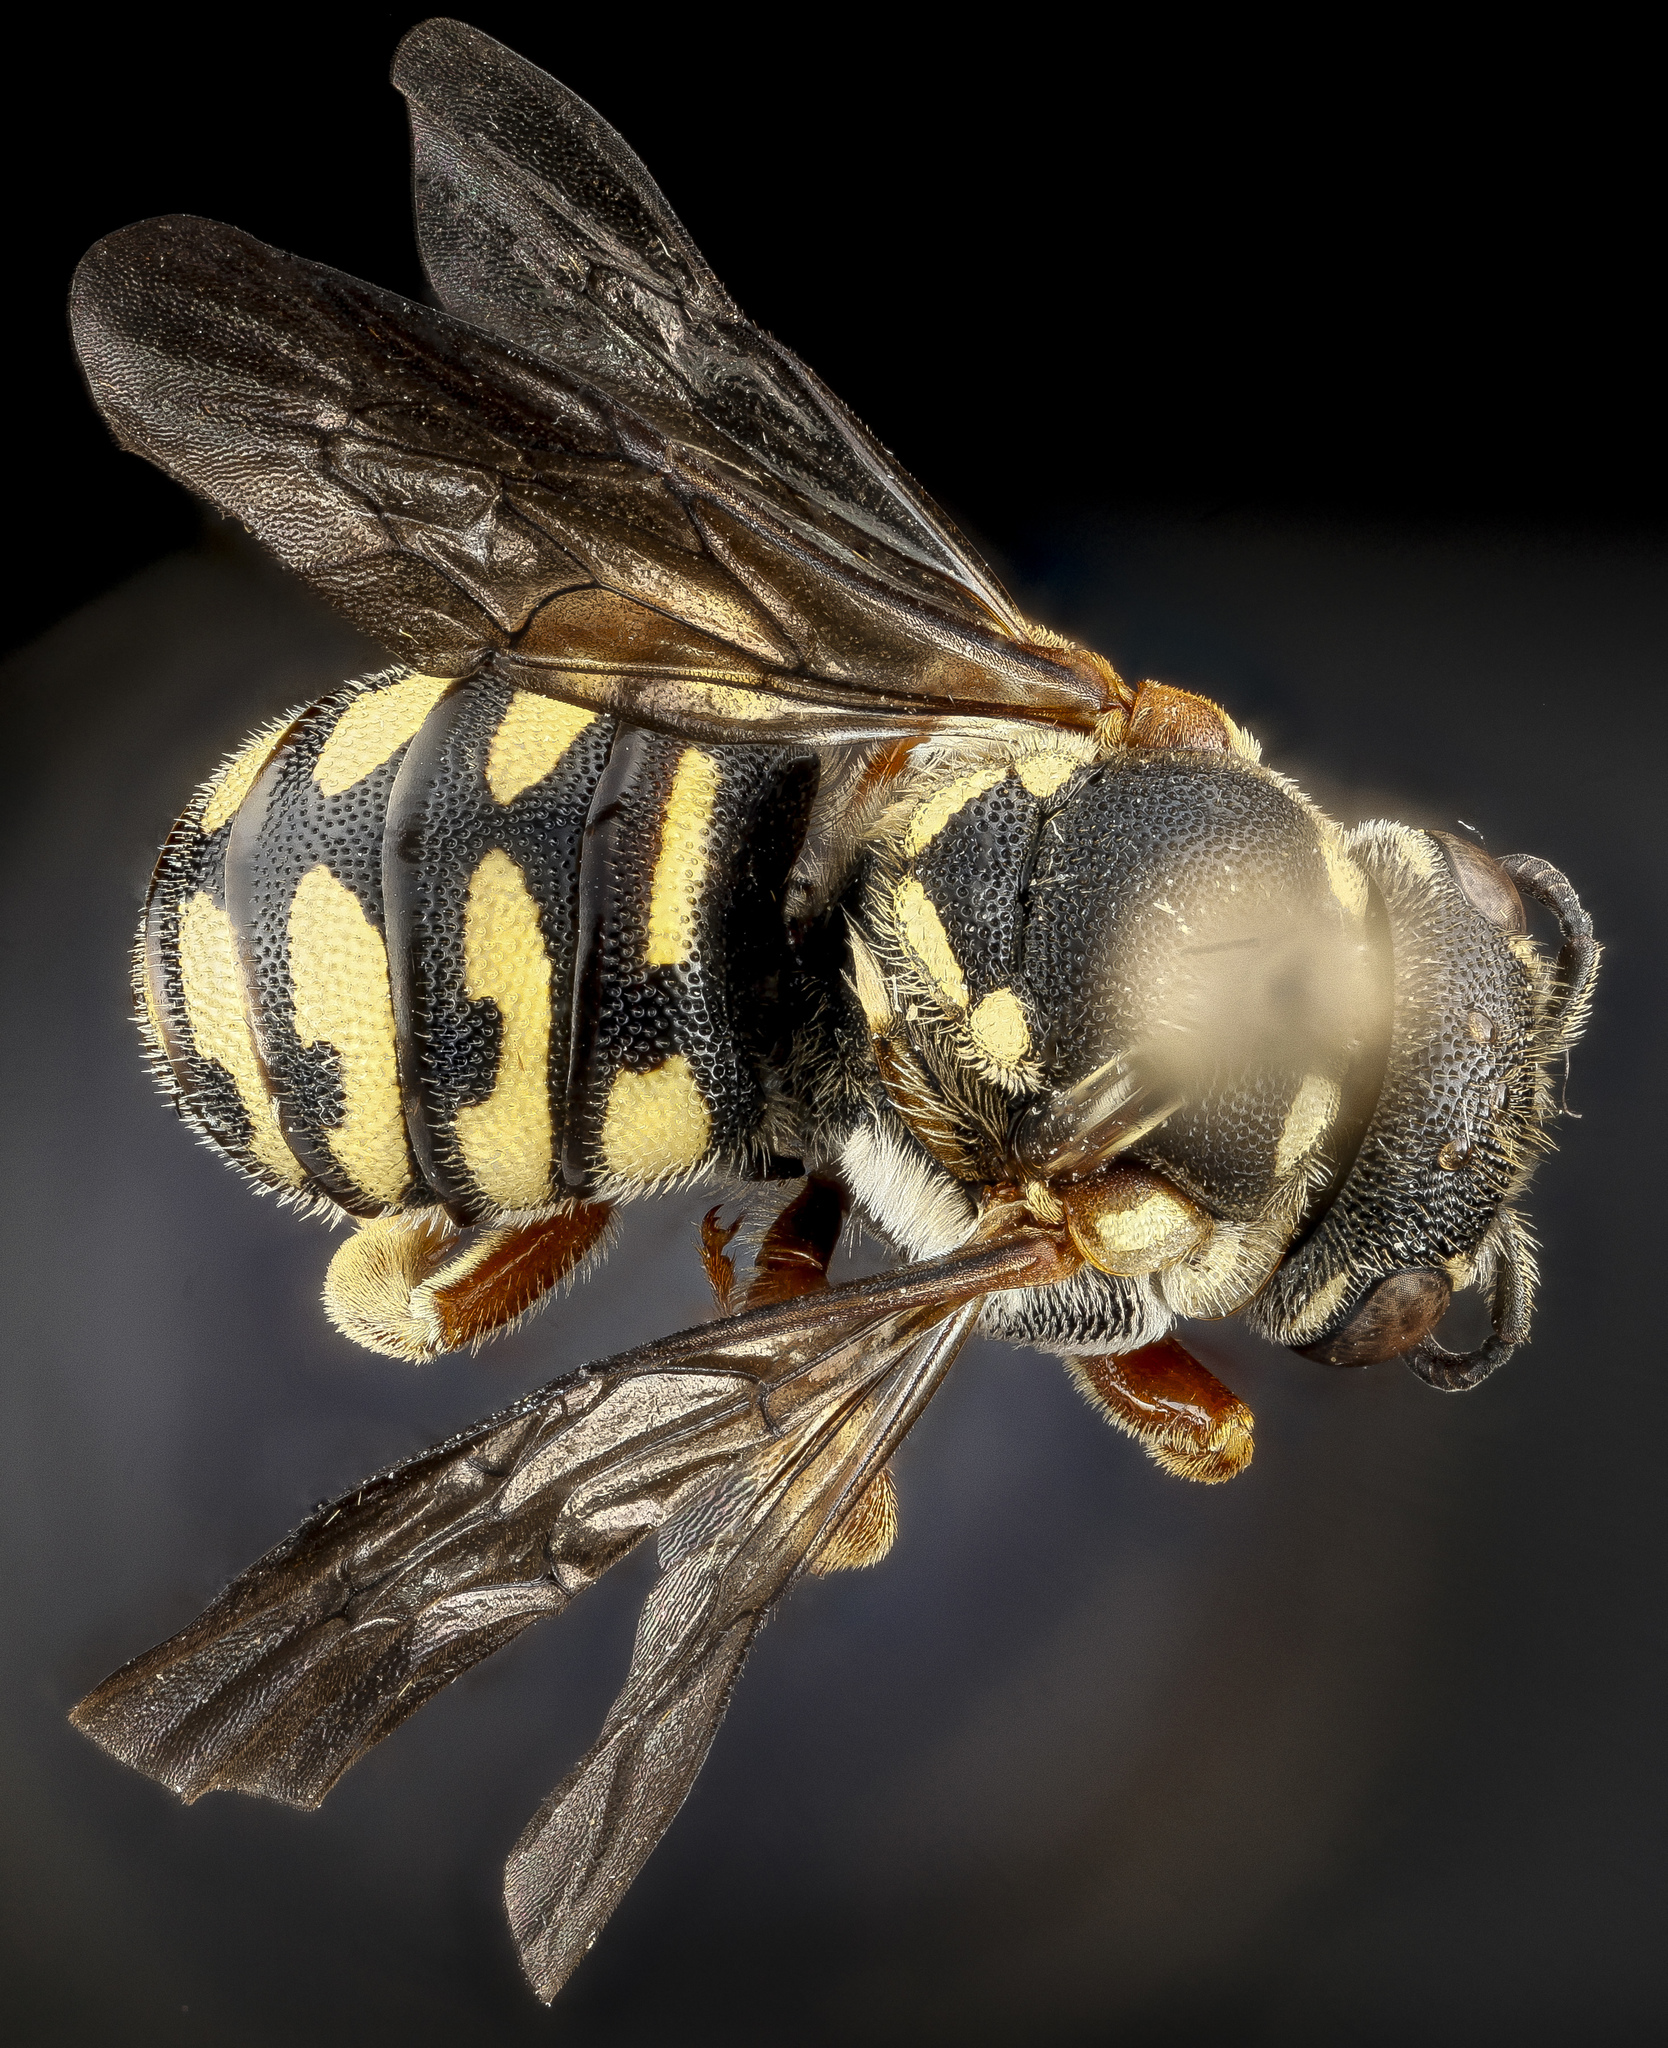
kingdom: Animalia
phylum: Arthropoda
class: Insecta
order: Hymenoptera
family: Megachilidae
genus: Dianthidium
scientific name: Dianthidium concinnum
